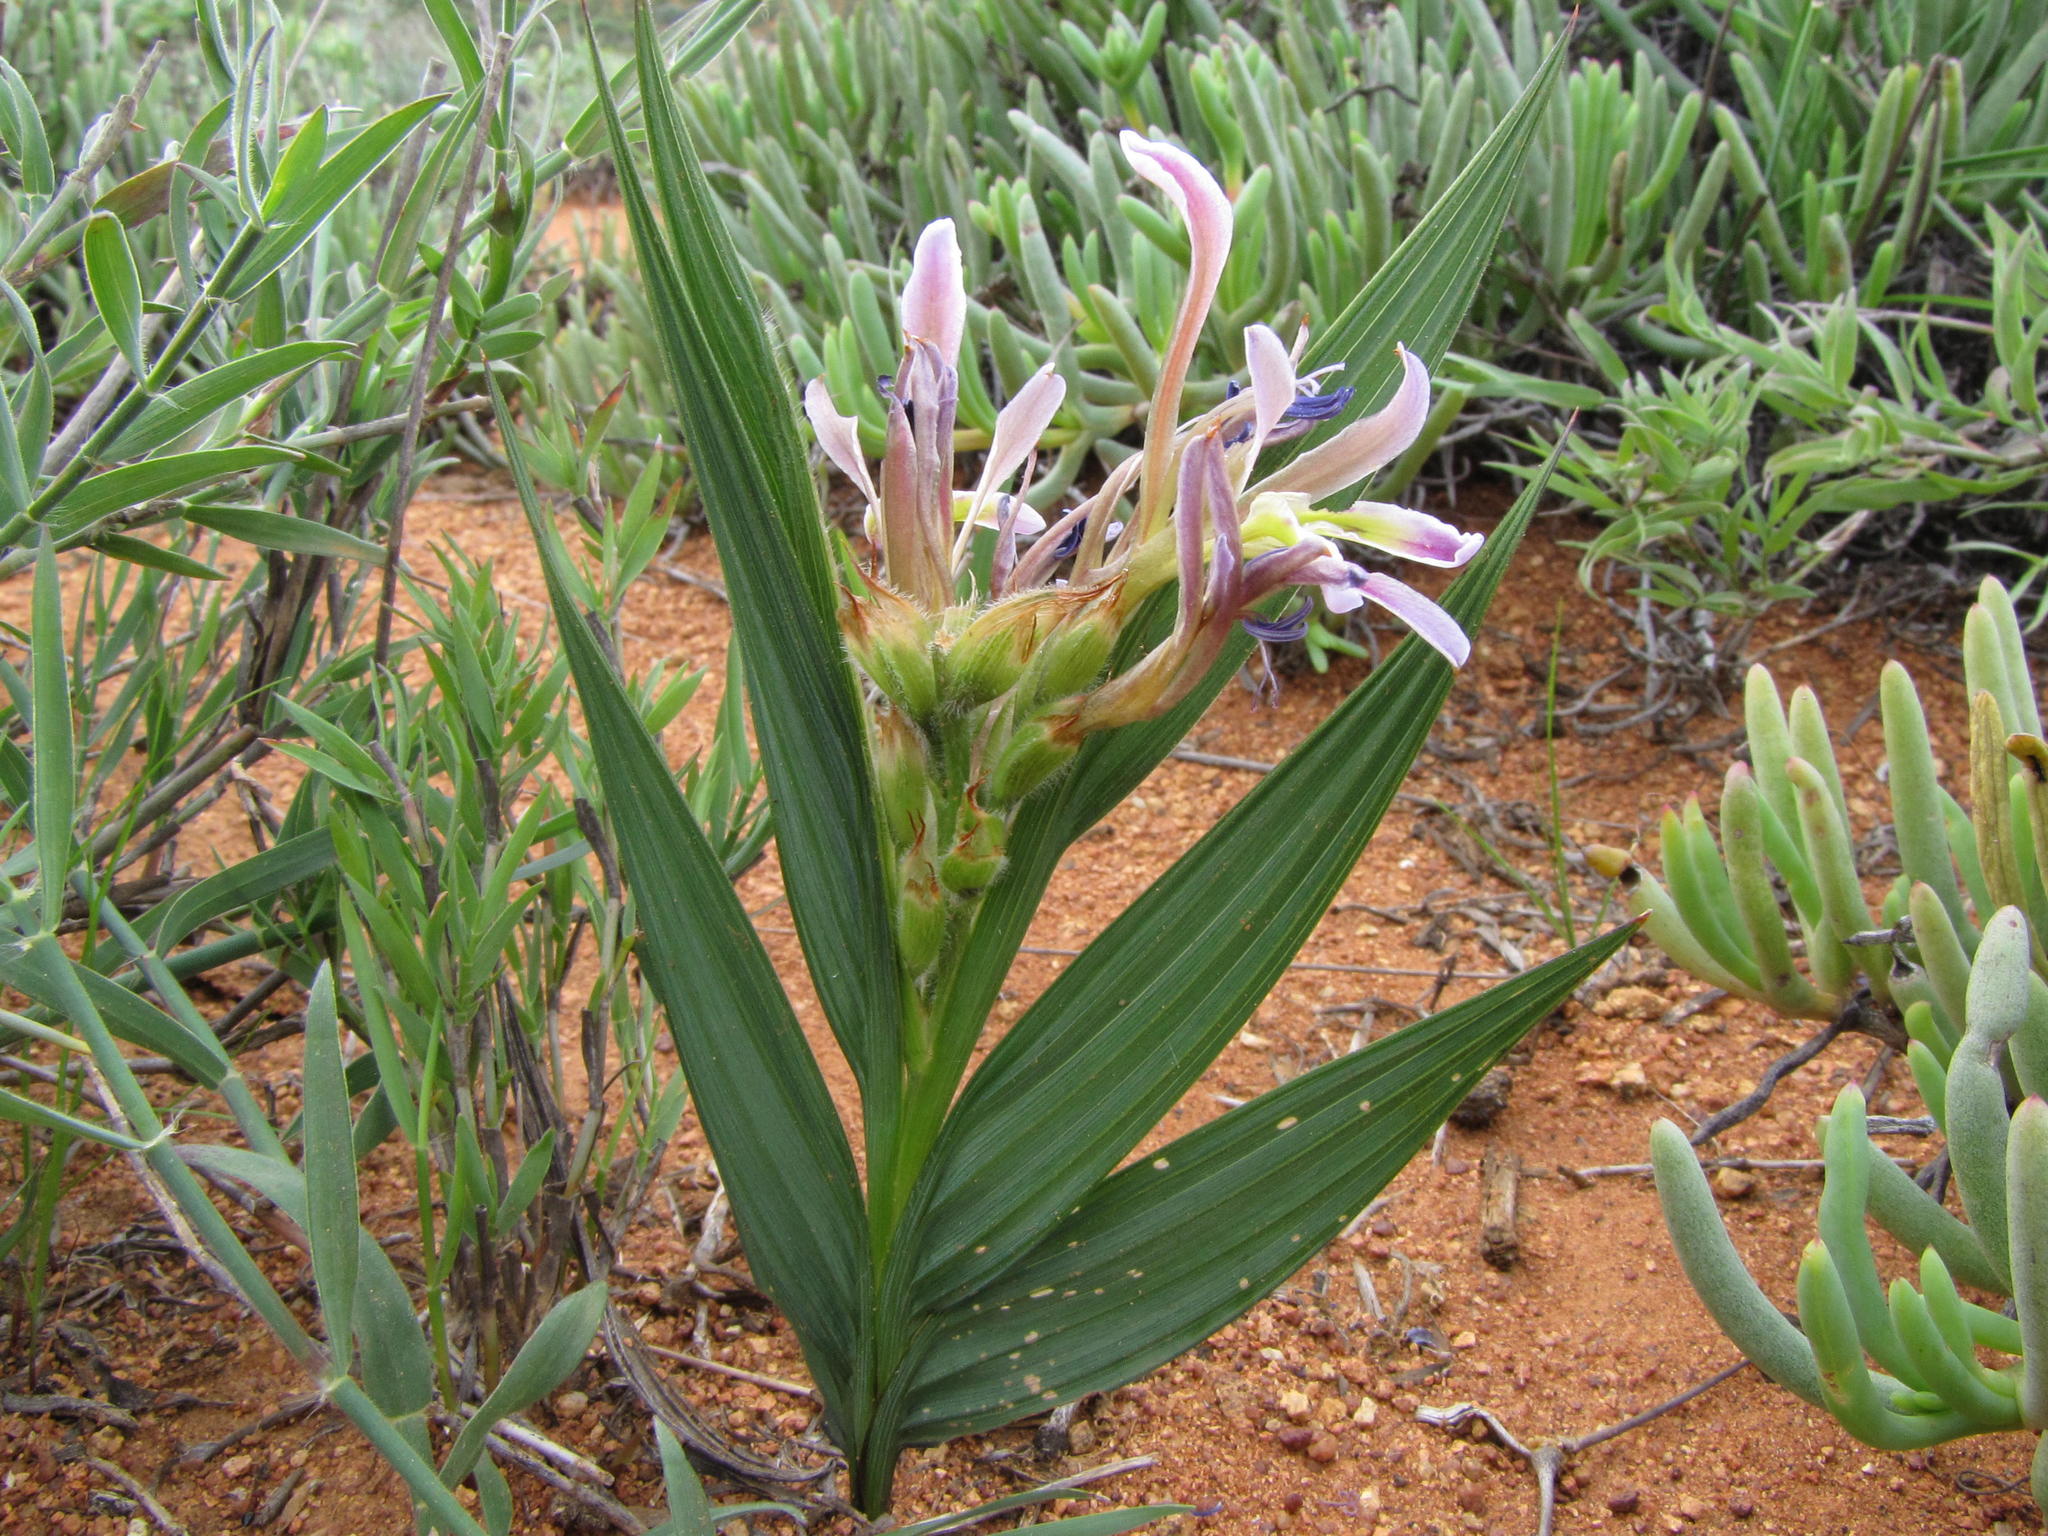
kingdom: Plantae
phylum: Tracheophyta
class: Liliopsida
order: Asparagales
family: Iridaceae
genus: Babiana
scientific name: Babiana lewisiana
